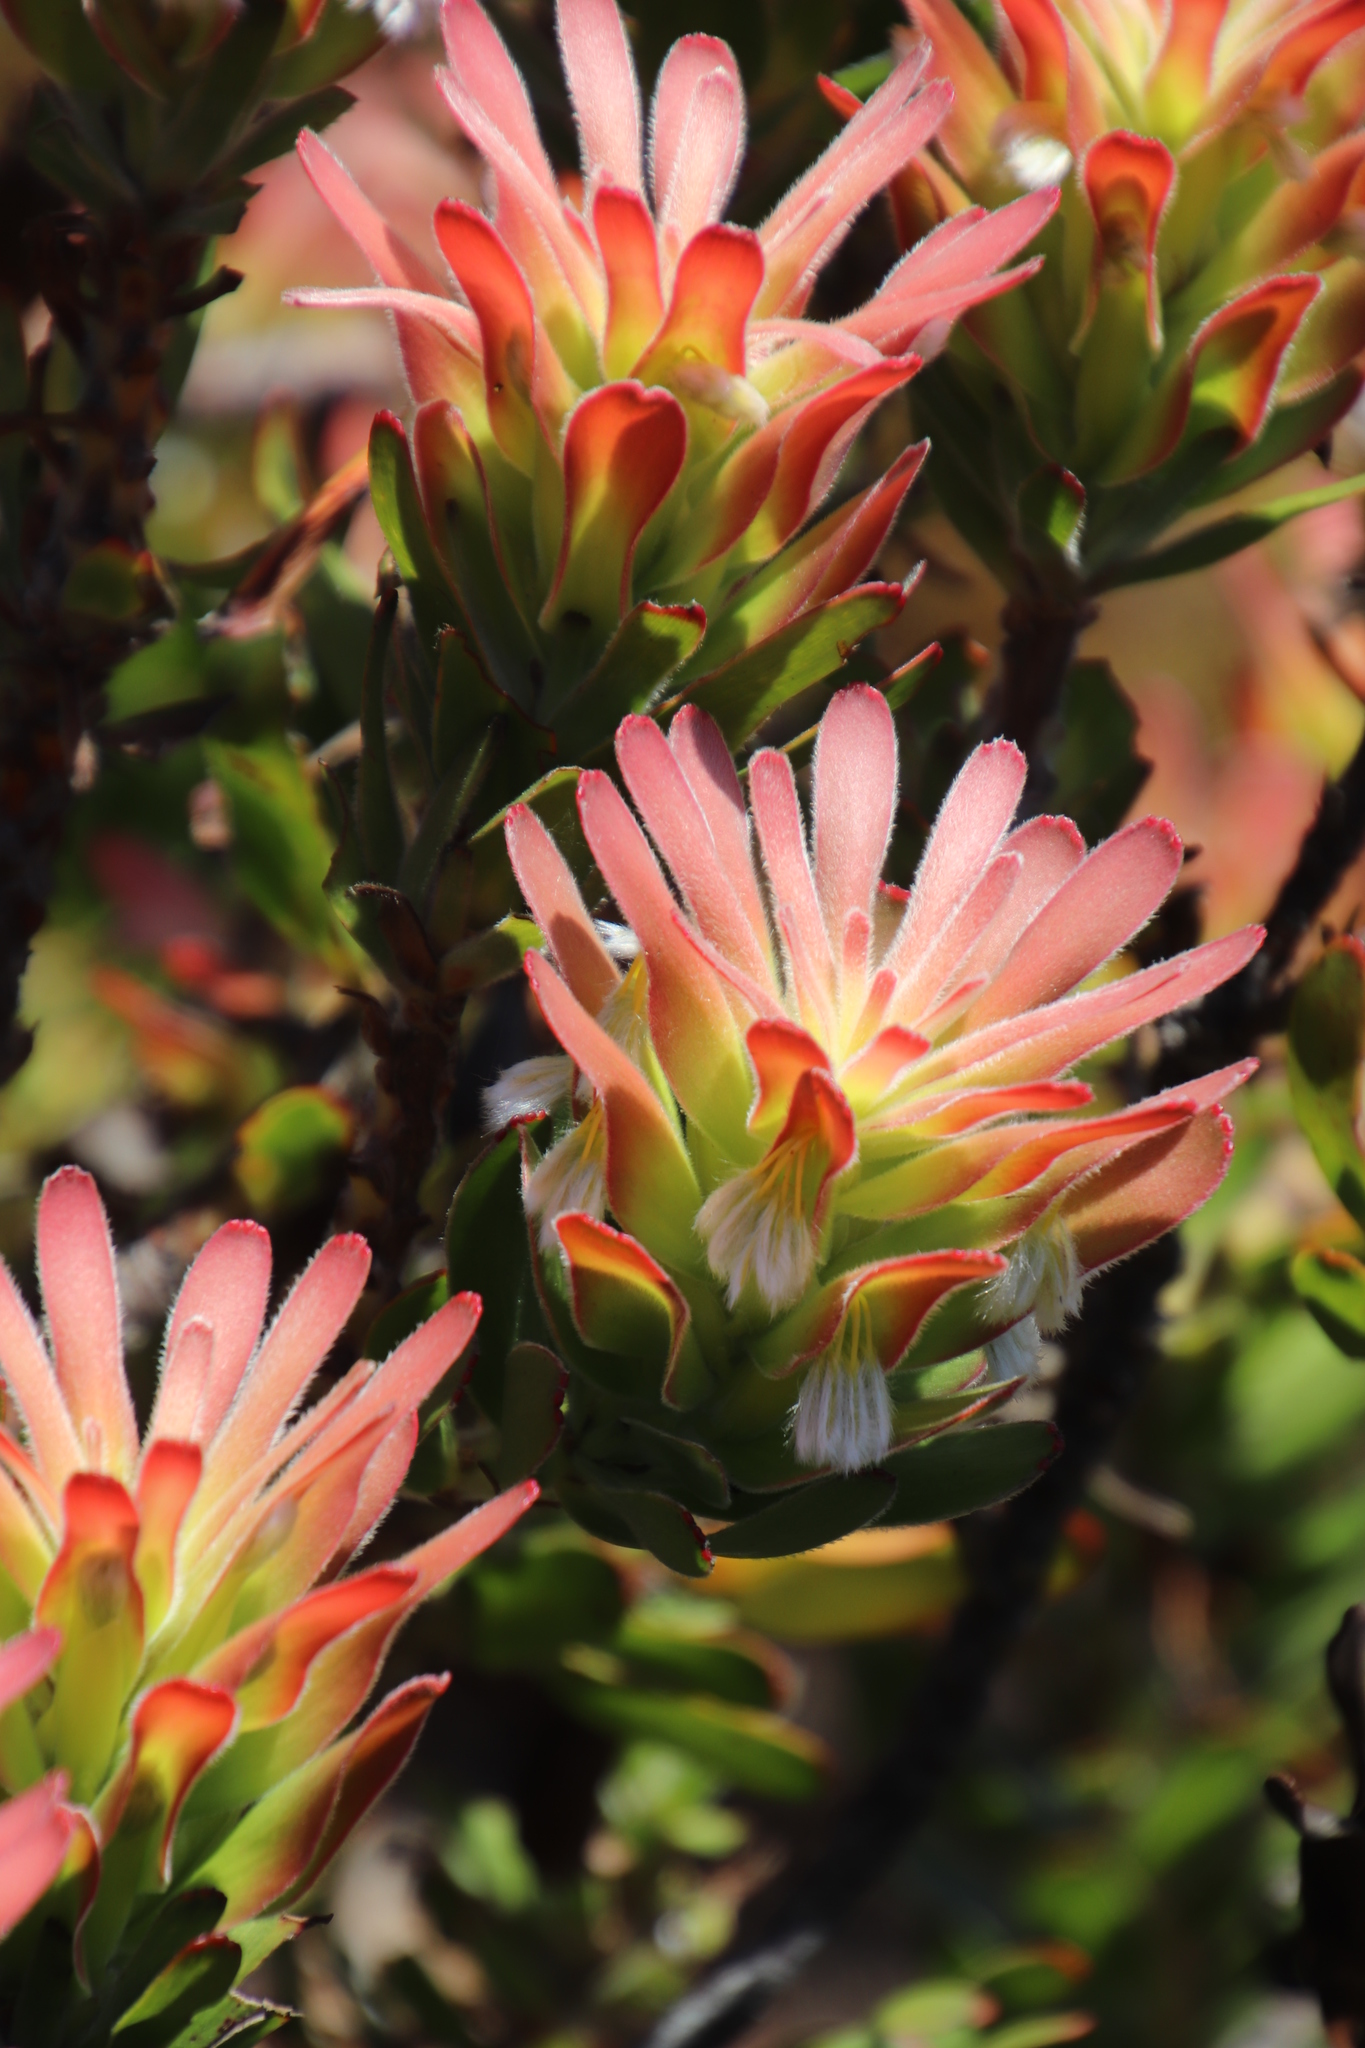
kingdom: Plantae
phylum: Tracheophyta
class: Magnoliopsida
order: Proteales
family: Proteaceae
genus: Mimetes
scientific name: Mimetes
